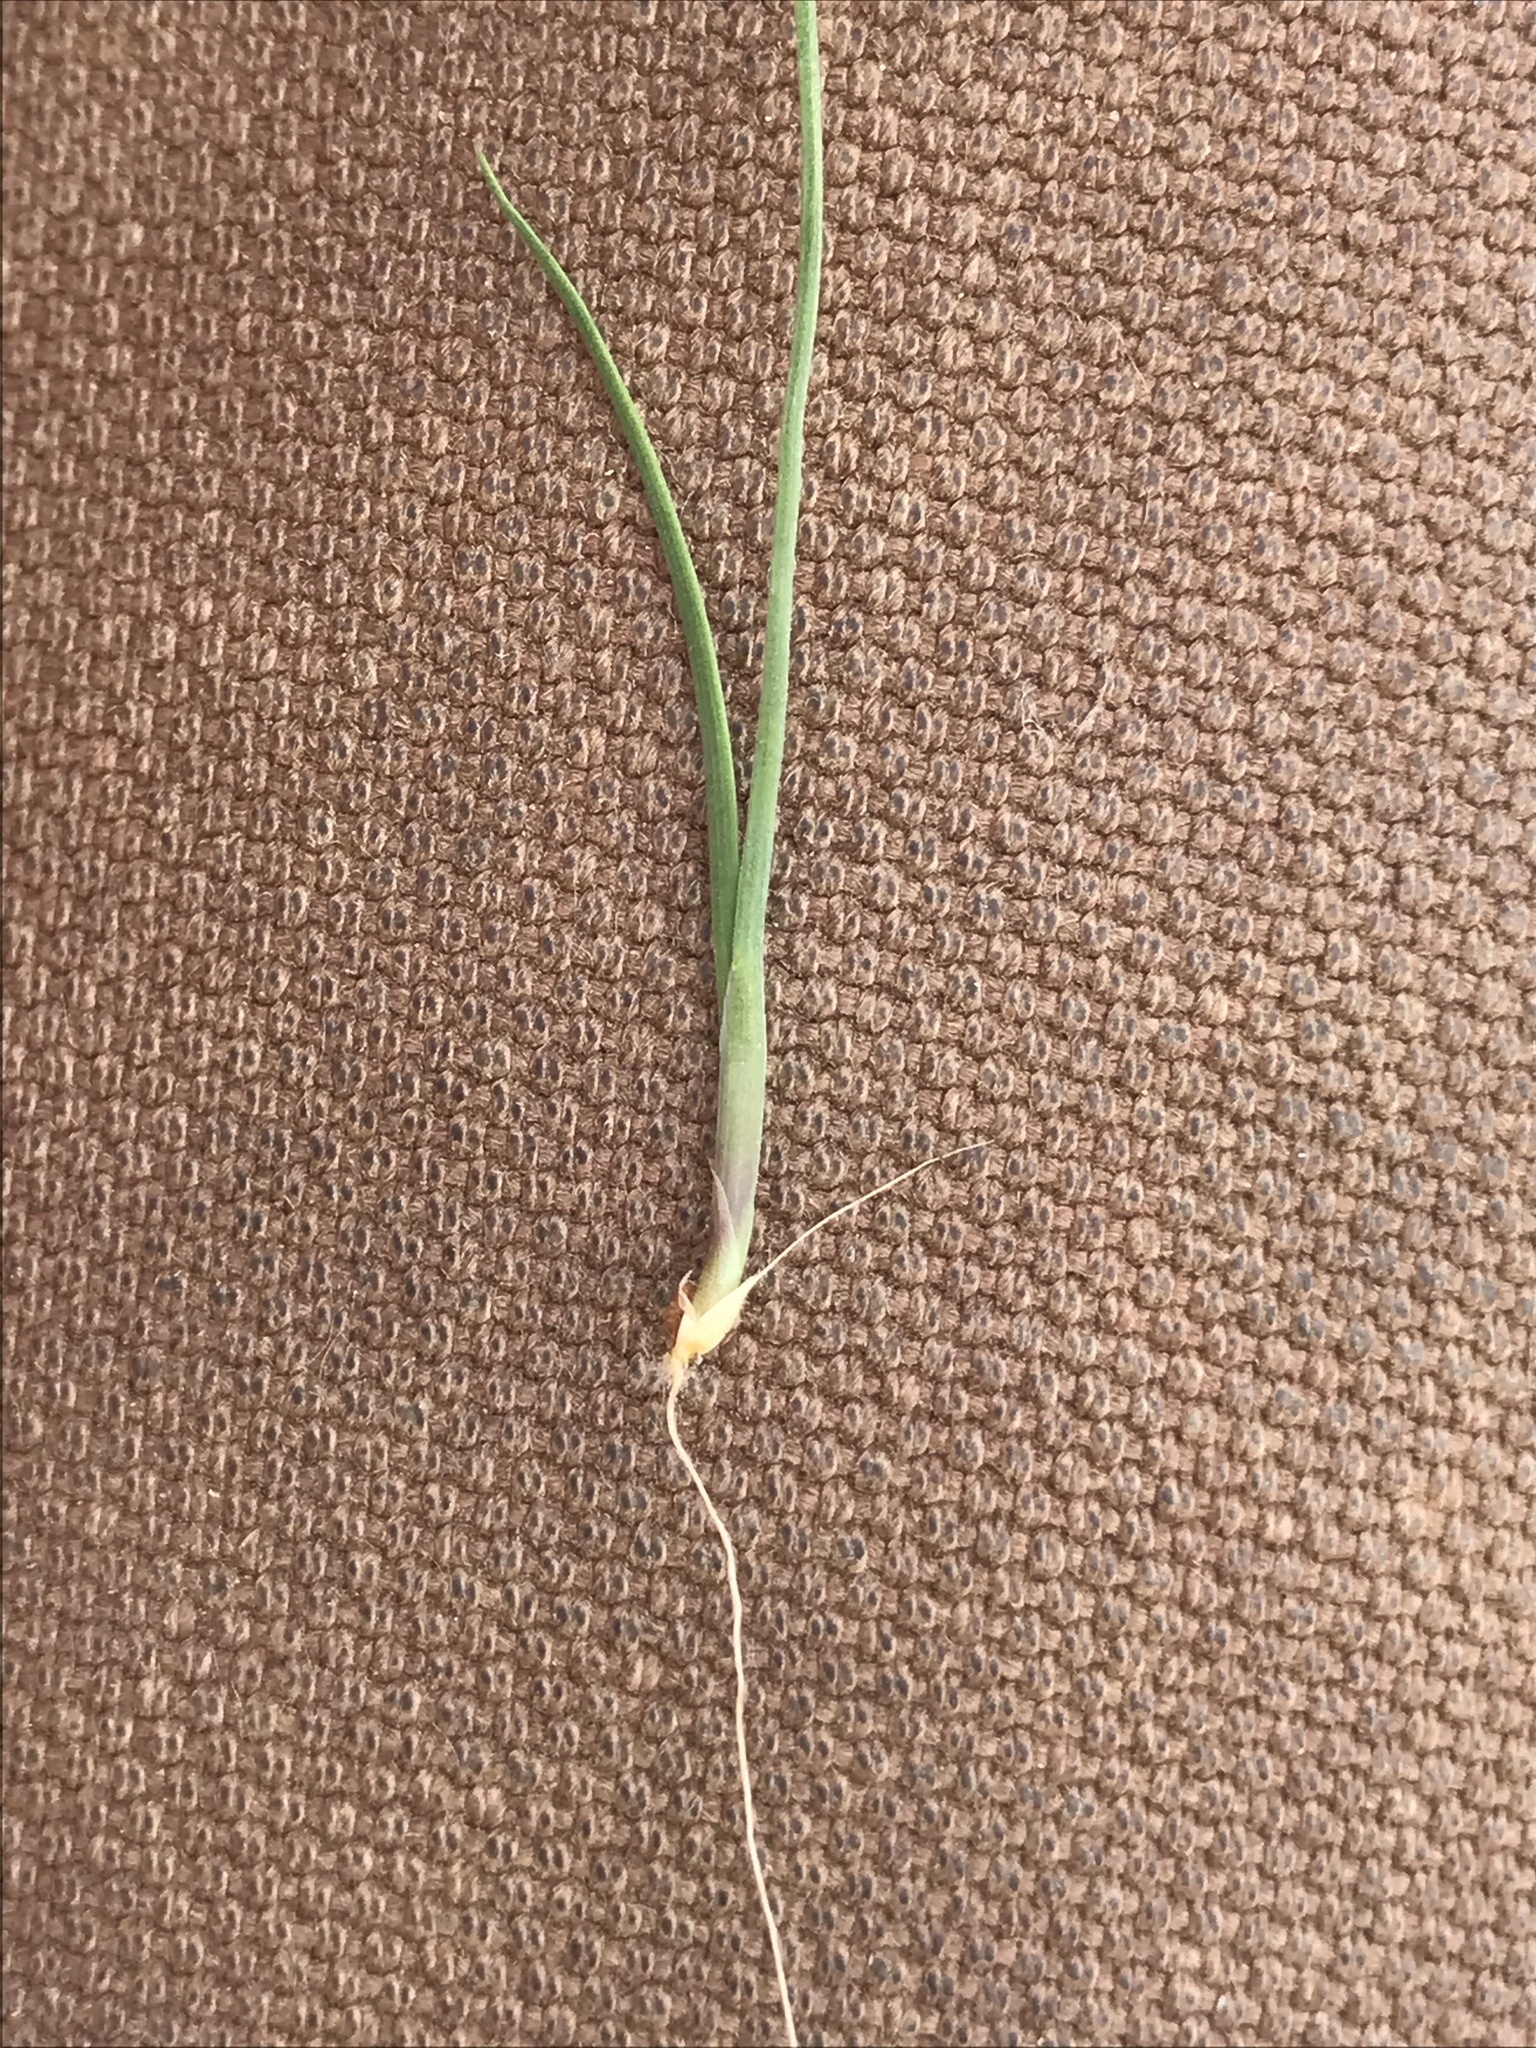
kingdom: Plantae
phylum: Tracheophyta
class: Liliopsida
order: Poales
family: Poaceae
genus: Lamarckia
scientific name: Lamarckia aurea
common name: Golden dog's-tail
